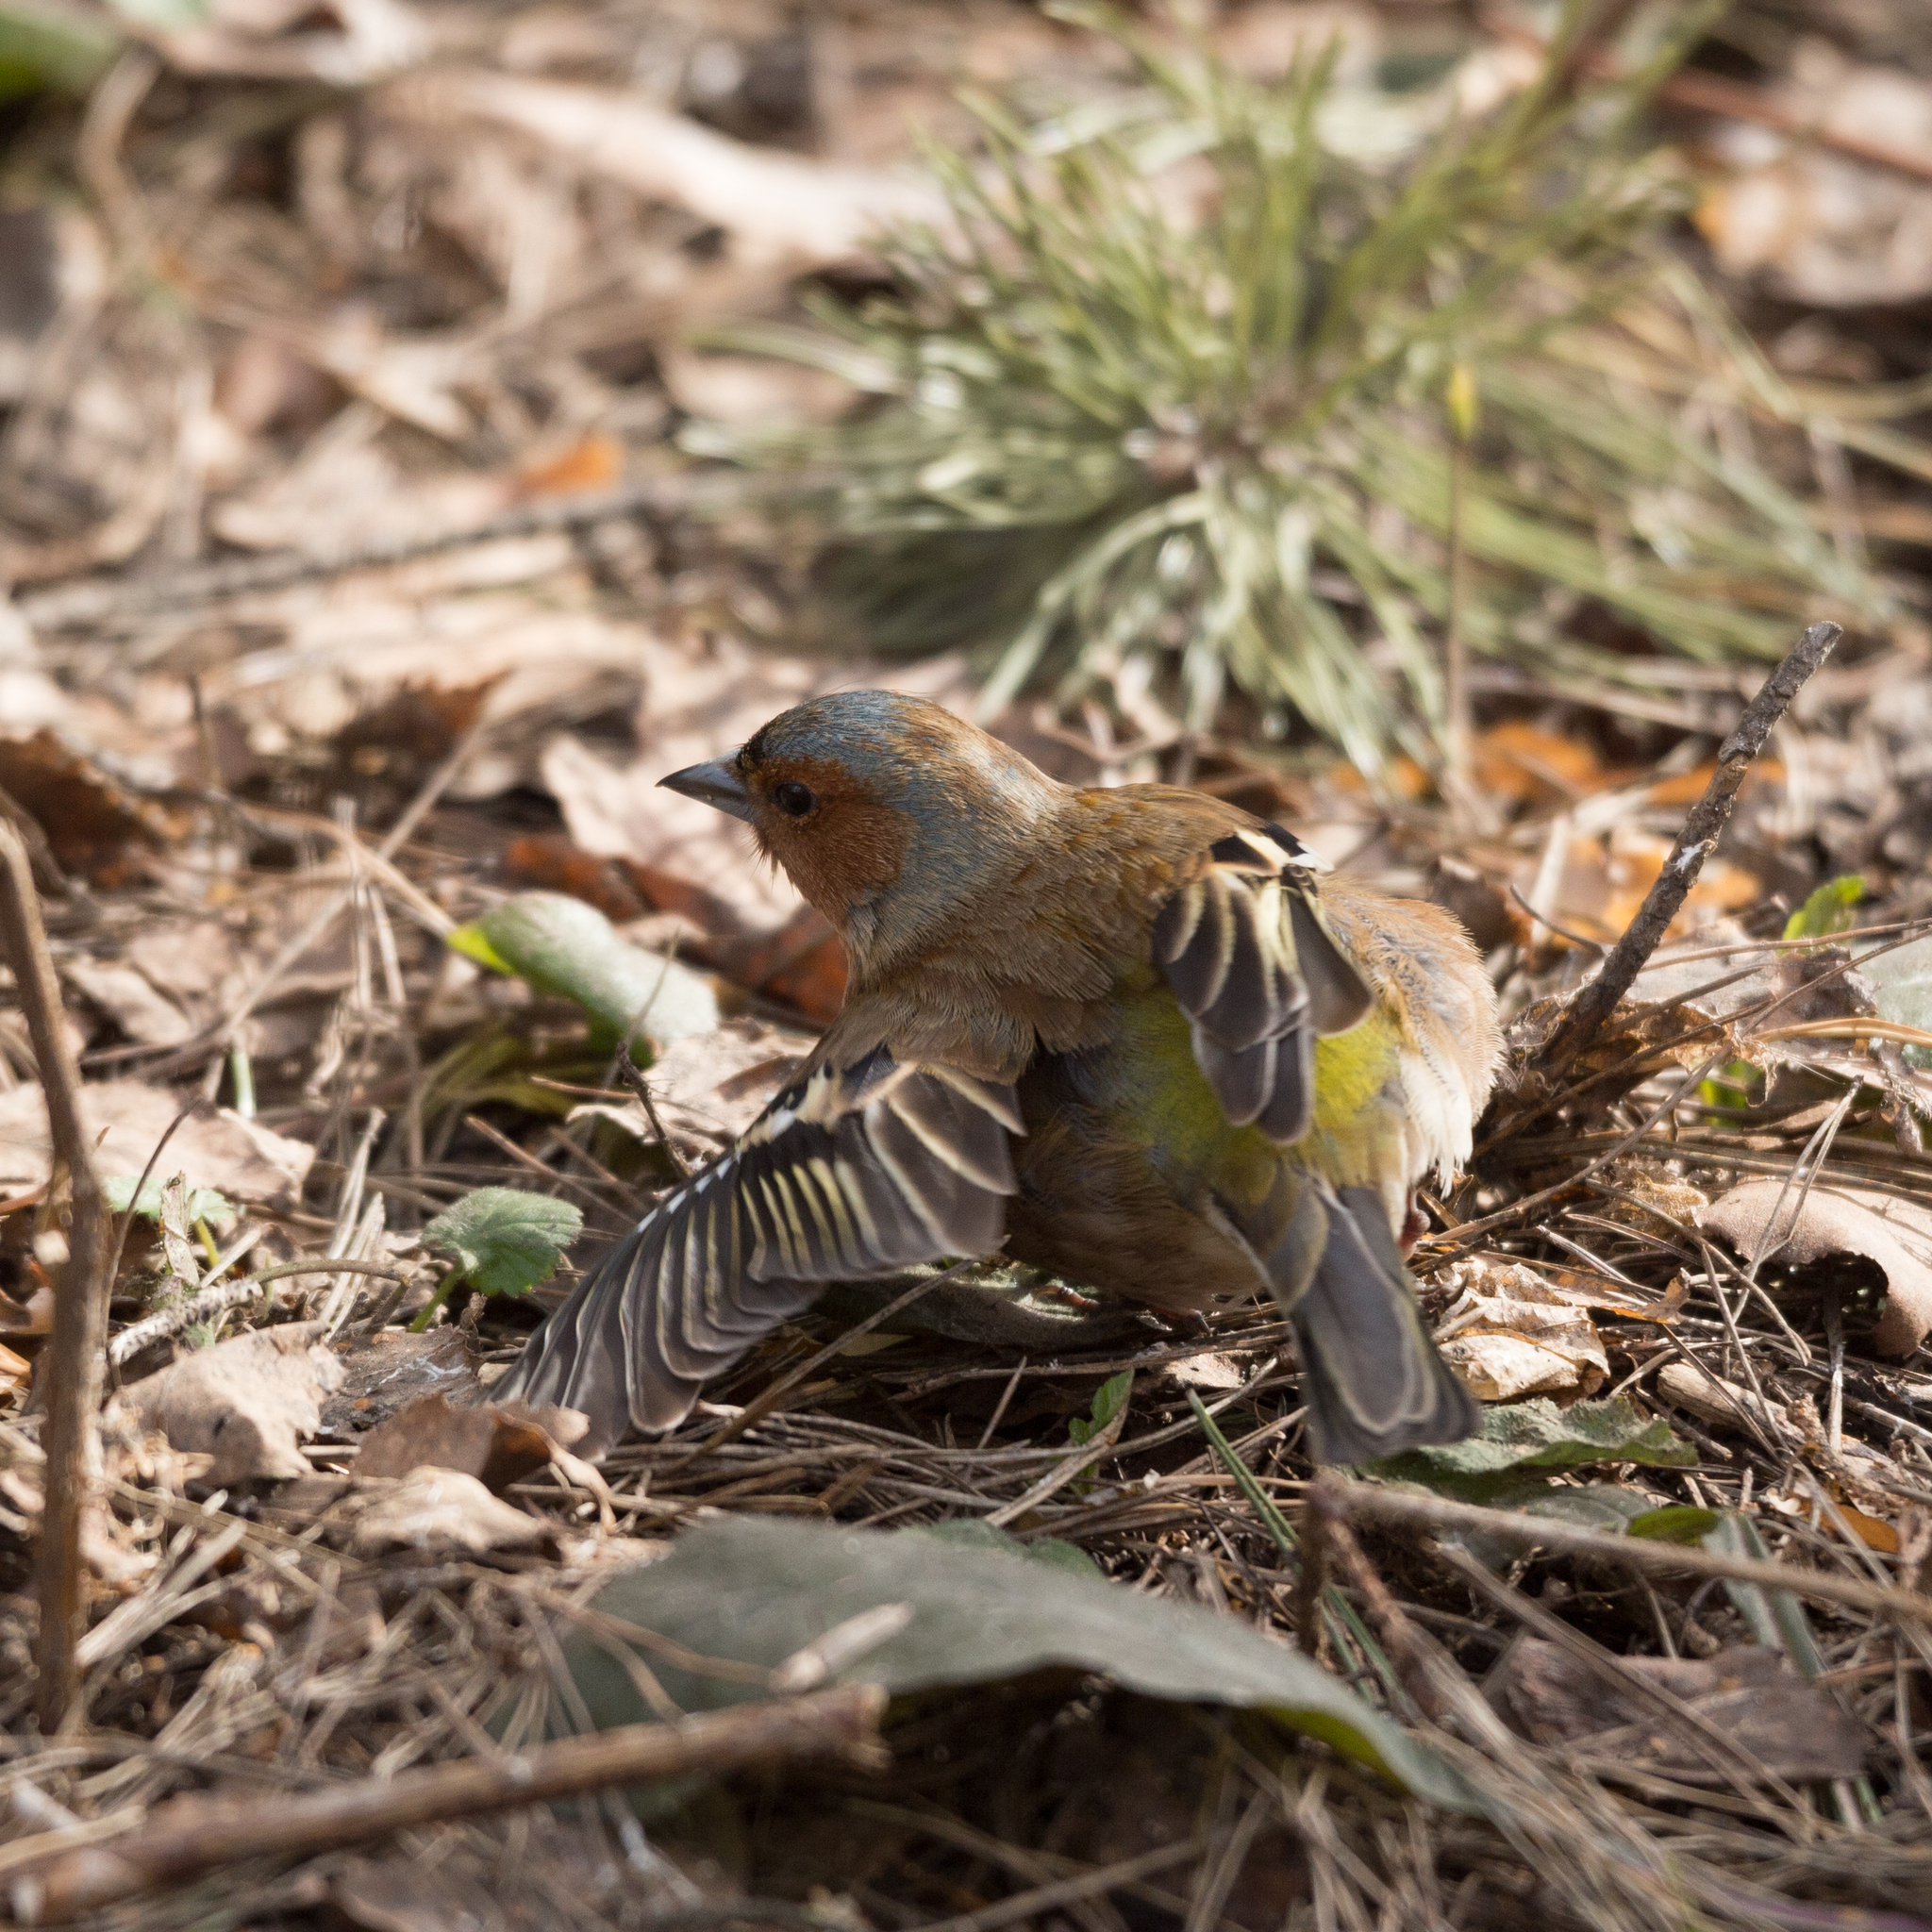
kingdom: Animalia
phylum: Chordata
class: Aves
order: Passeriformes
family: Fringillidae
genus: Fringilla
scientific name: Fringilla coelebs
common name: Common chaffinch
